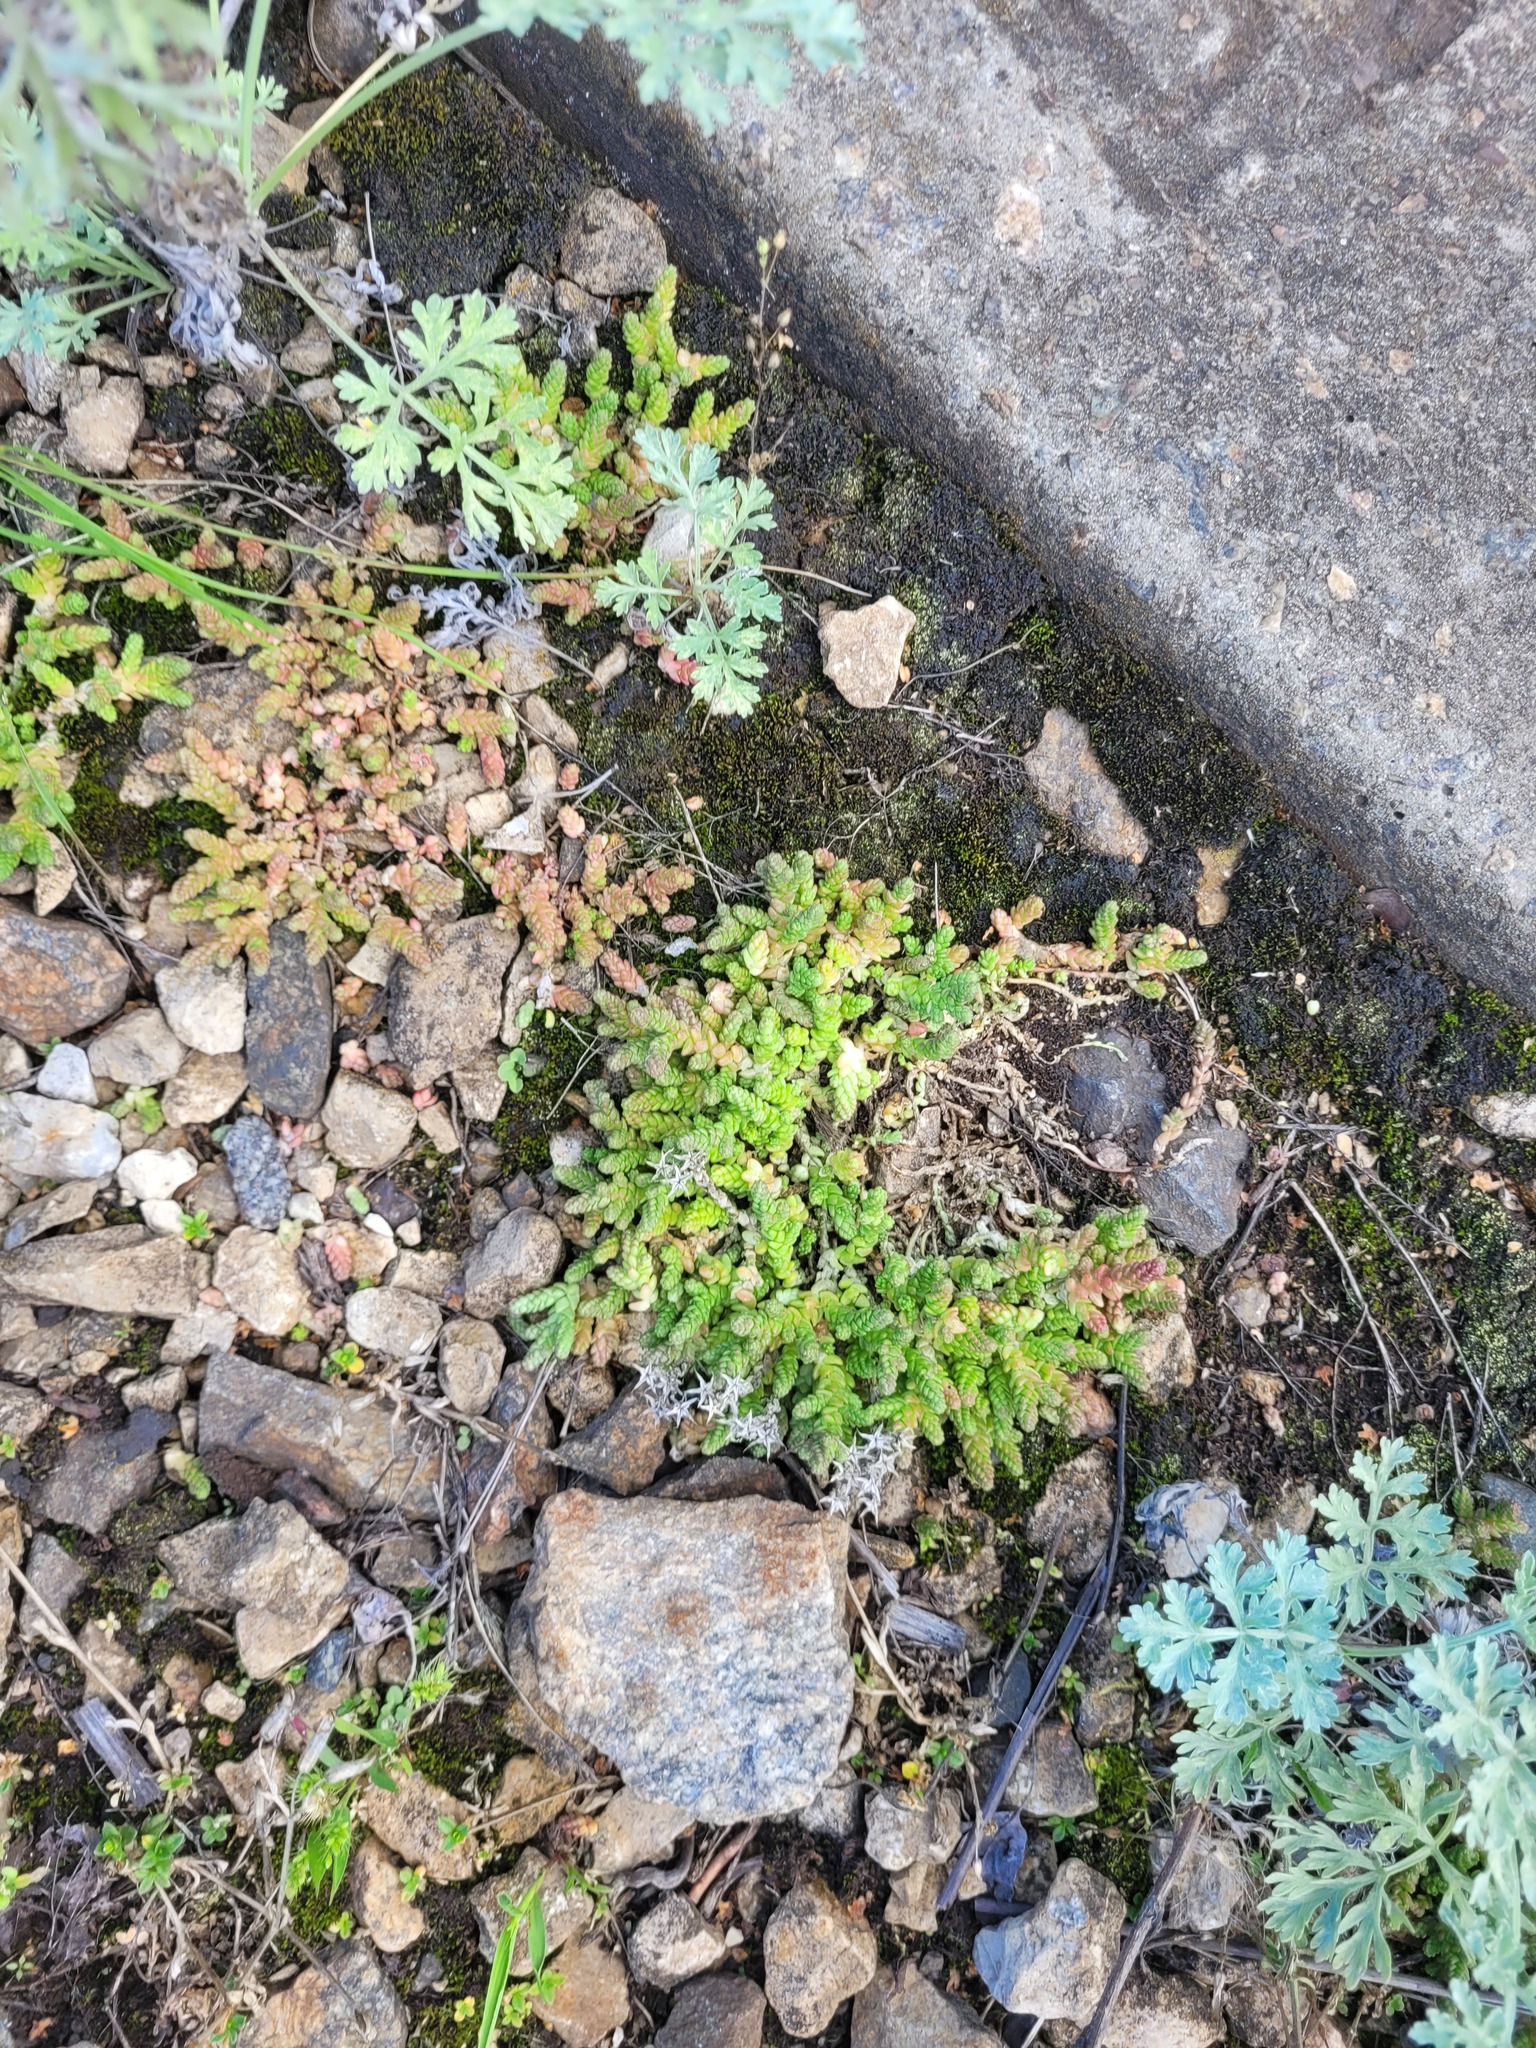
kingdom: Plantae
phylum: Tracheophyta
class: Magnoliopsida
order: Saxifragales
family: Crassulaceae
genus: Sedum
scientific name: Sedum acre
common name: Biting stonecrop
